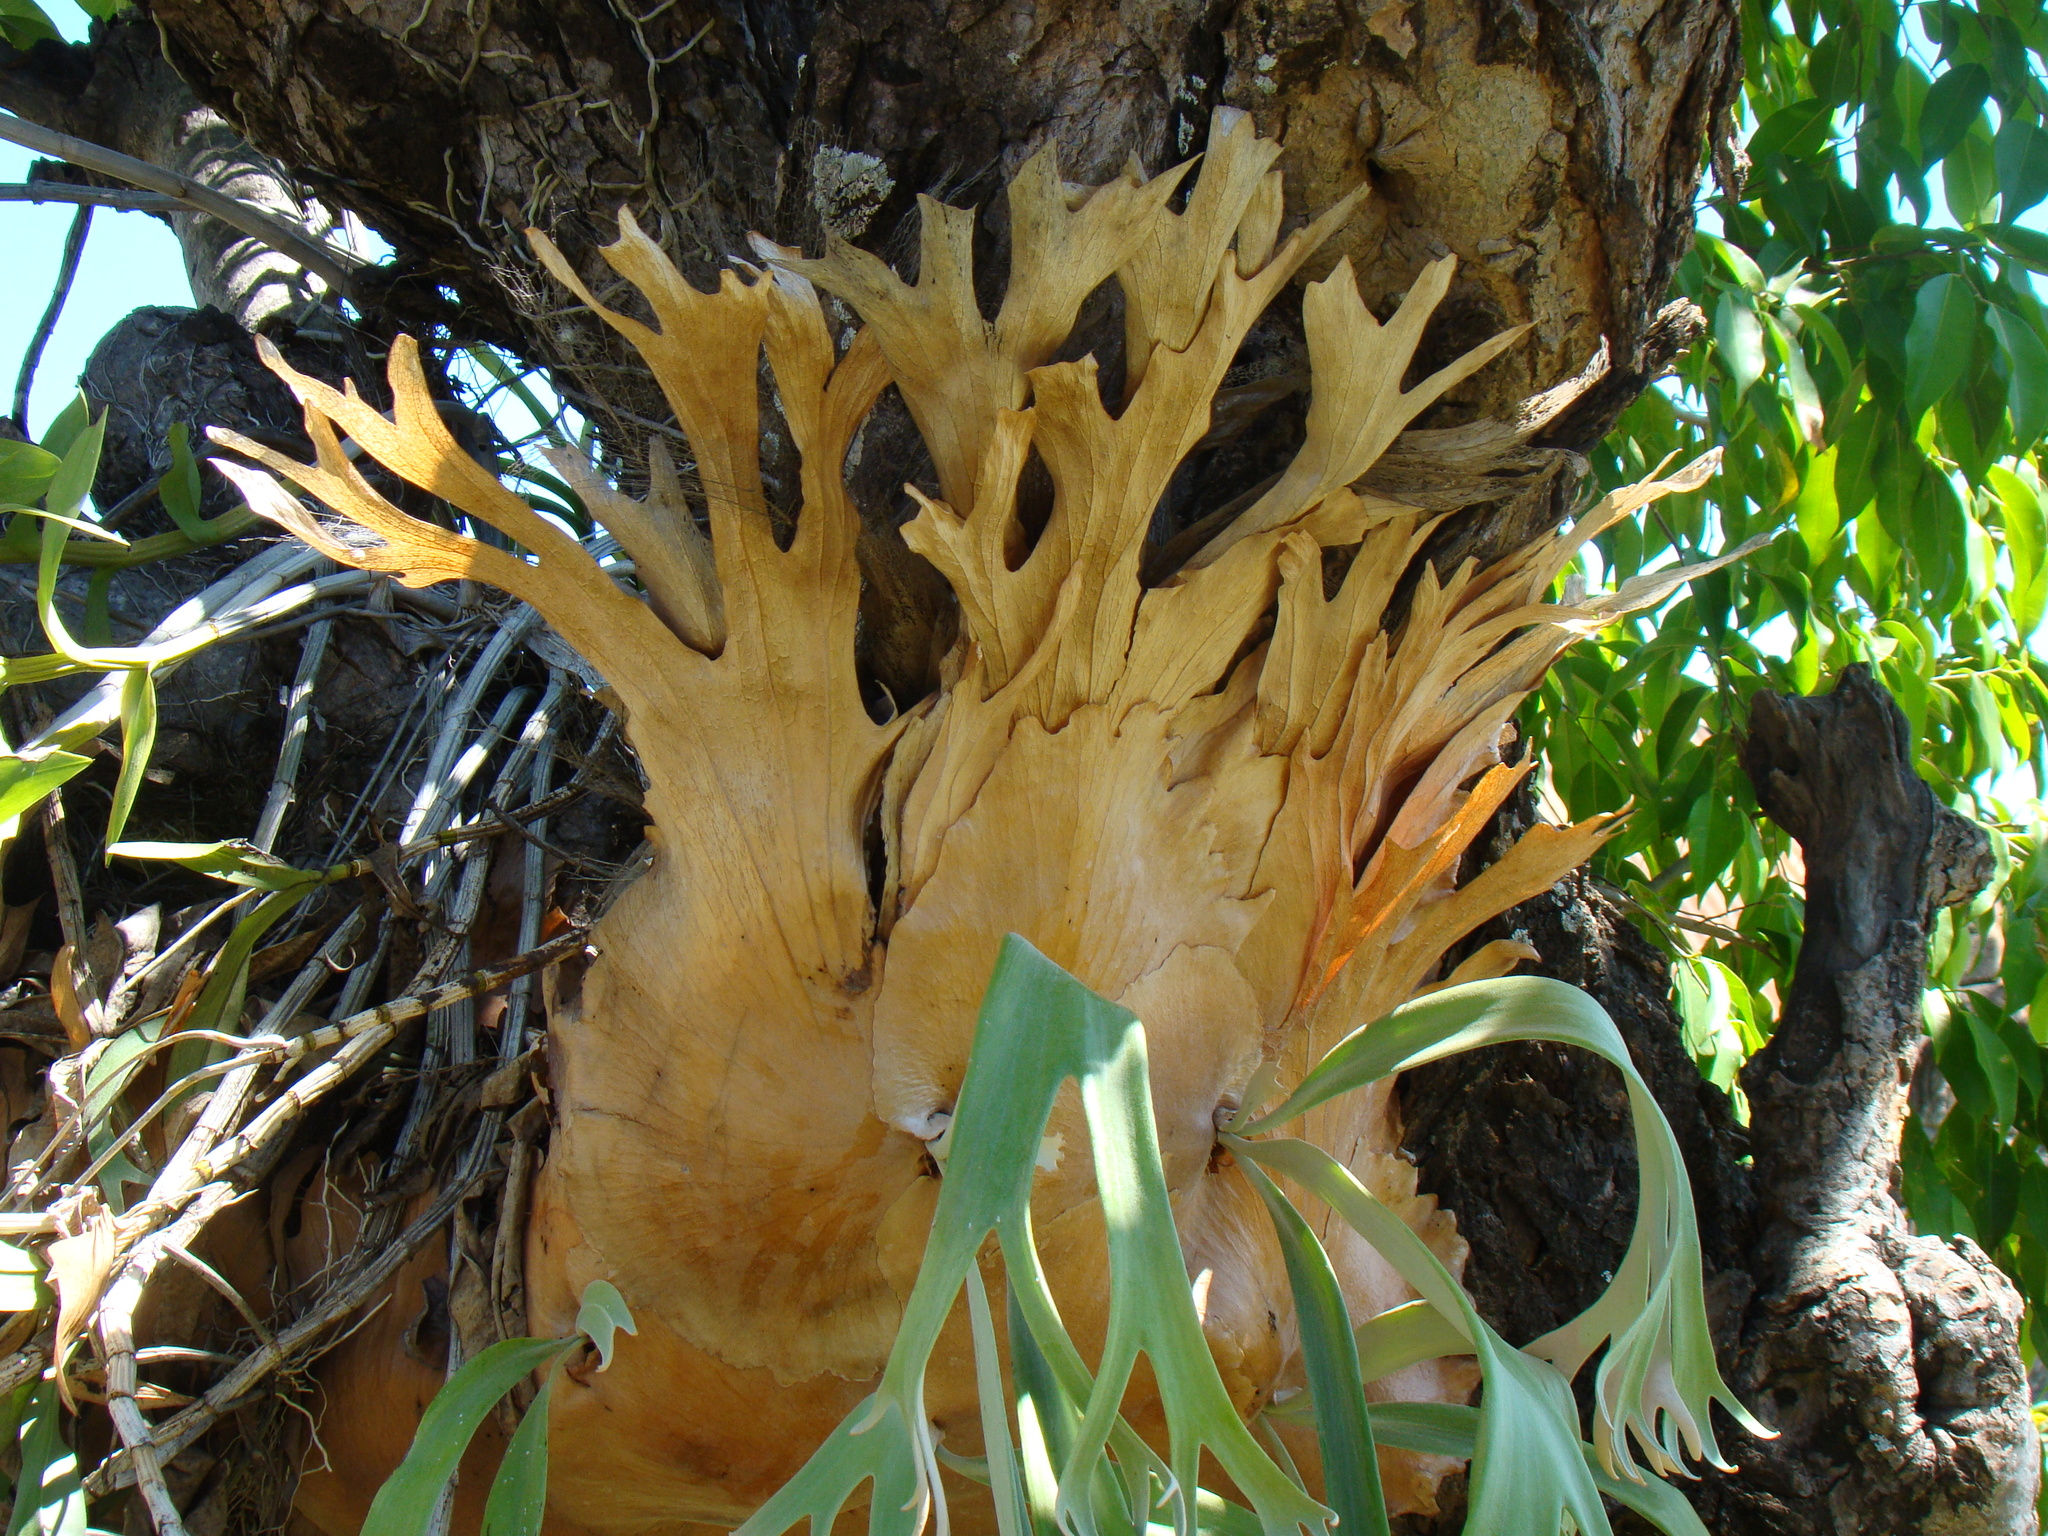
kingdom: Plantae
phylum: Tracheophyta
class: Polypodiopsida
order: Polypodiales
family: Polypodiaceae
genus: Platycerium
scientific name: Platycerium bifurcatum
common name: Elkhorn fern
